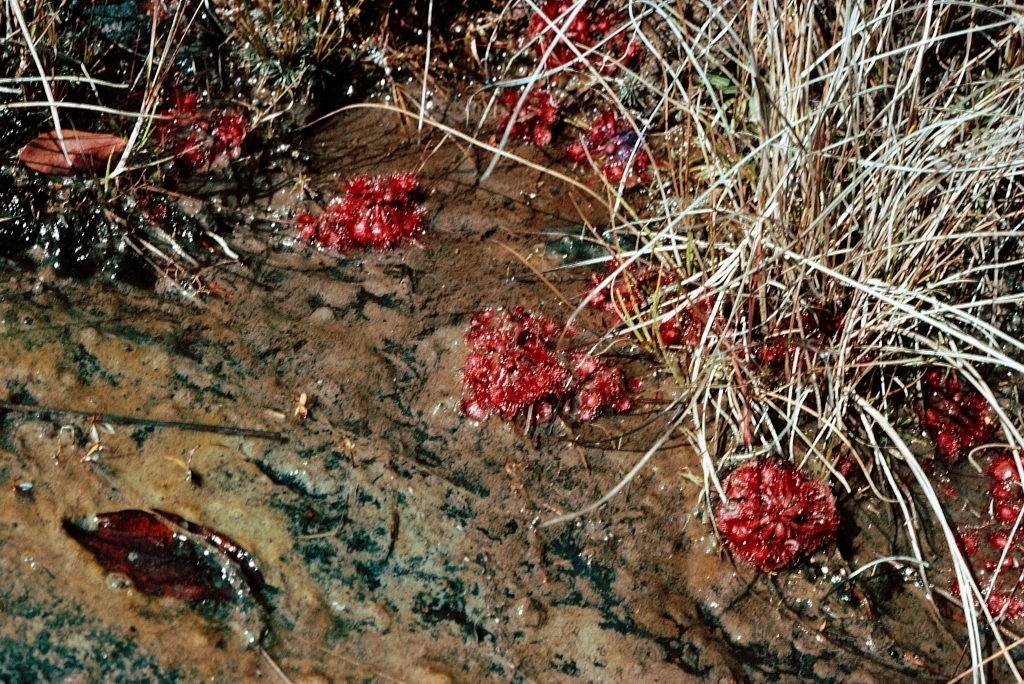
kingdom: Plantae
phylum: Tracheophyta
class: Magnoliopsida
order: Caryophyllales
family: Droseraceae
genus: Drosera
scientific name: Drosera burkeana
